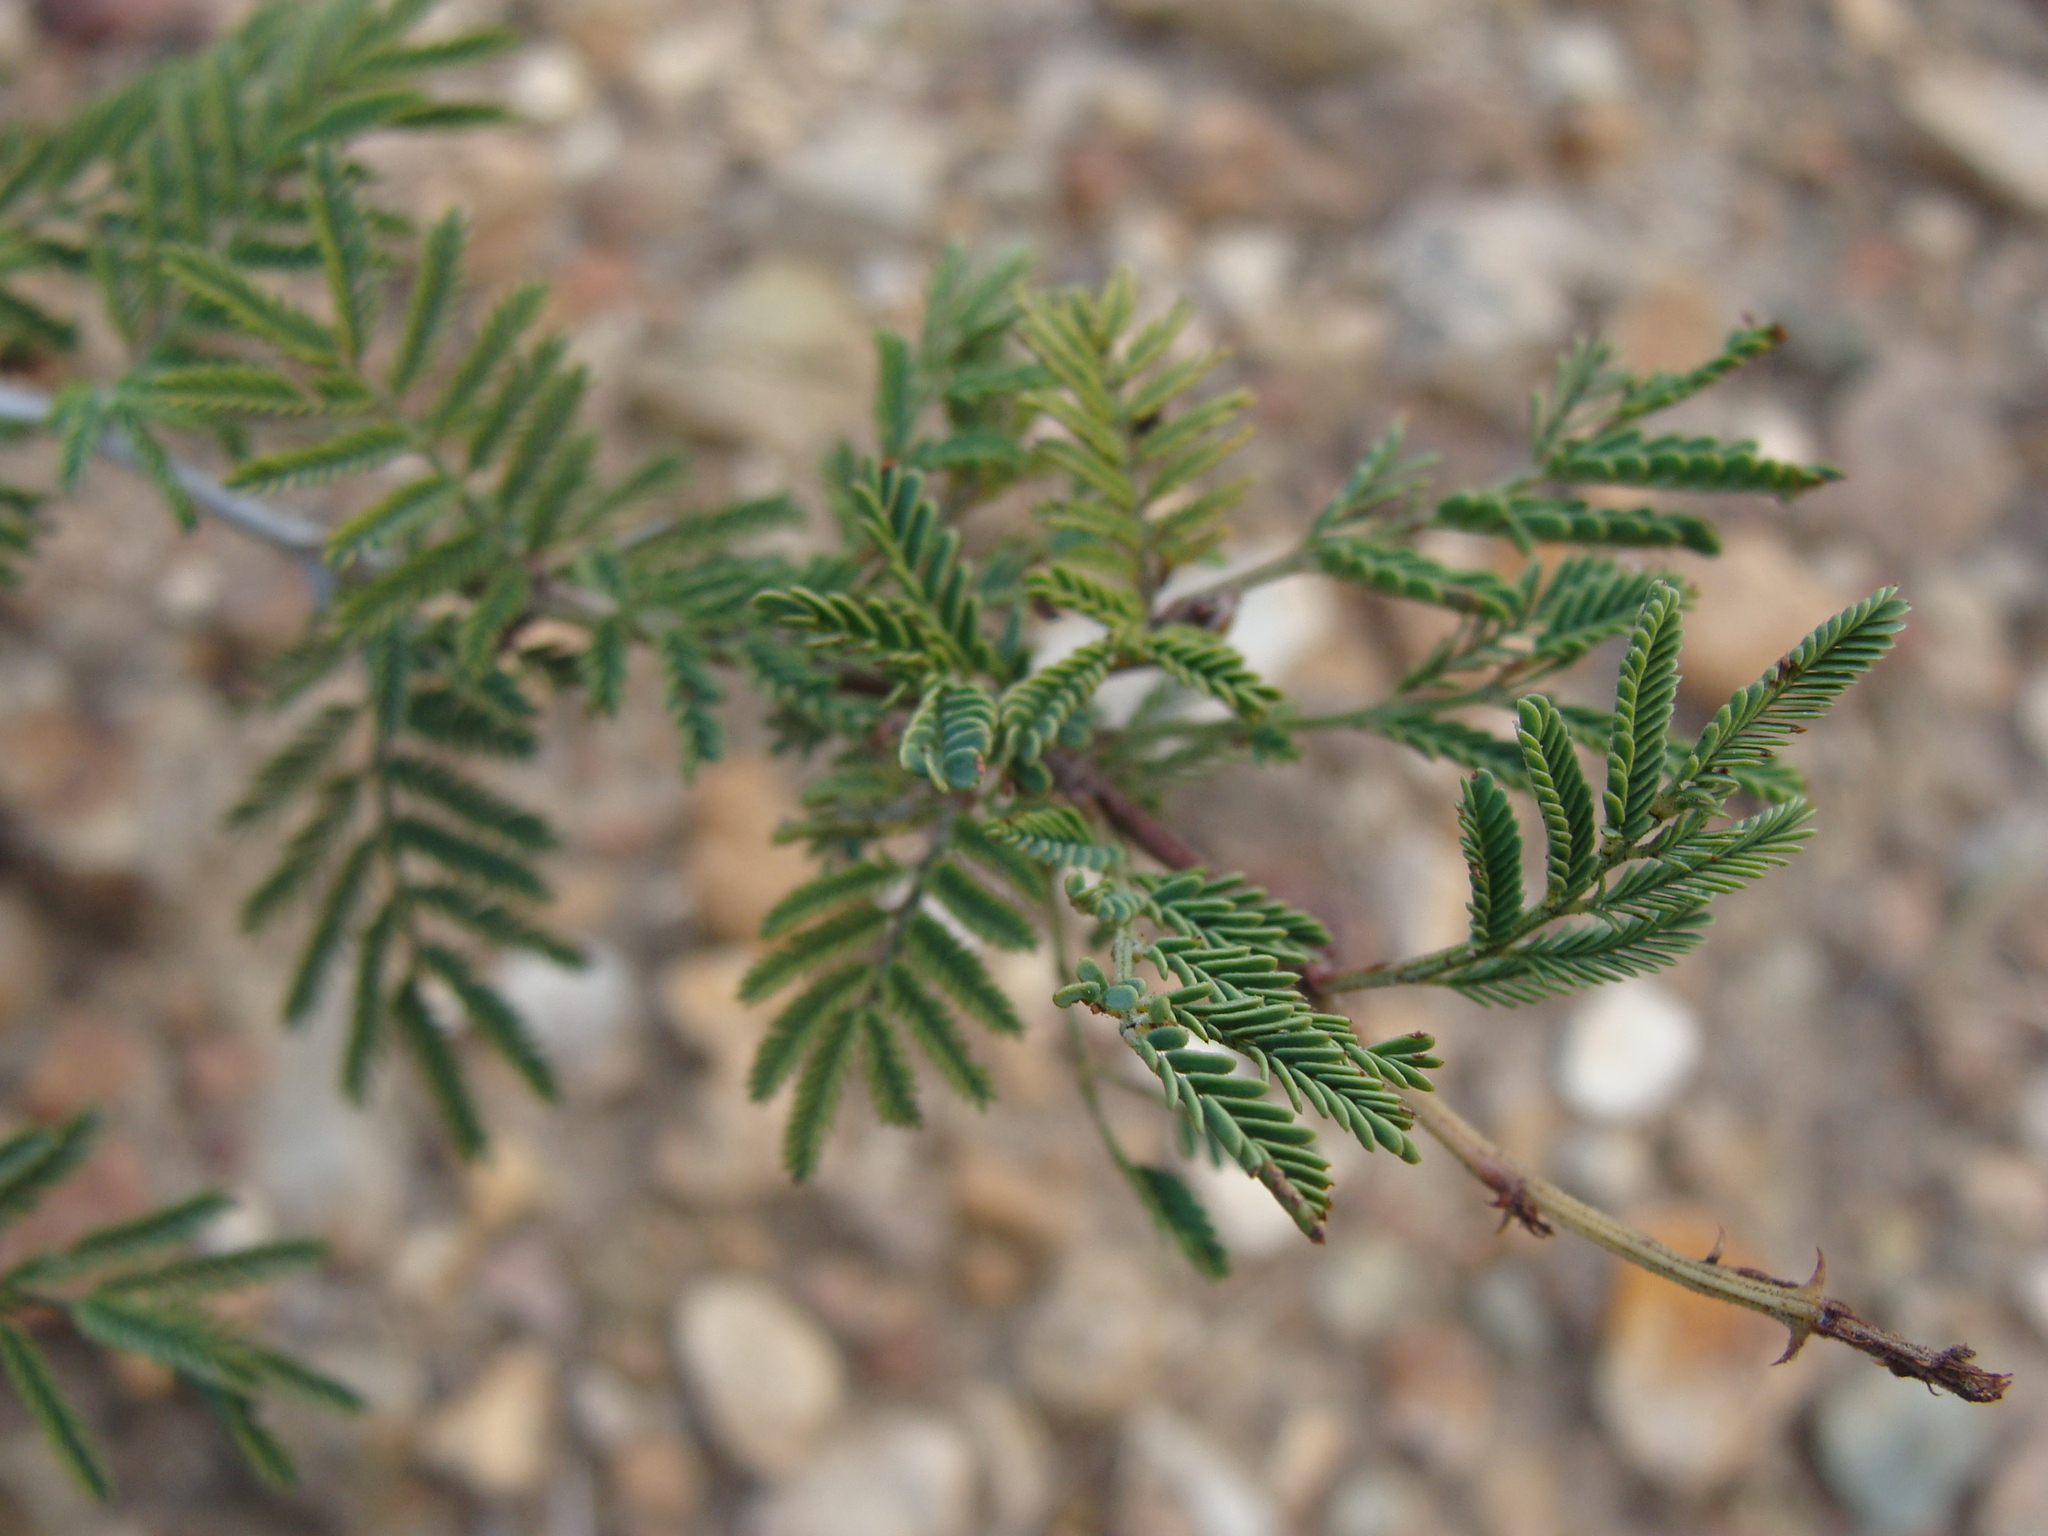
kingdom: Plantae
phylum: Tracheophyta
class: Magnoliopsida
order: Fabales
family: Fabaceae
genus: Mimosa
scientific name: Mimosa aculeaticarpa
